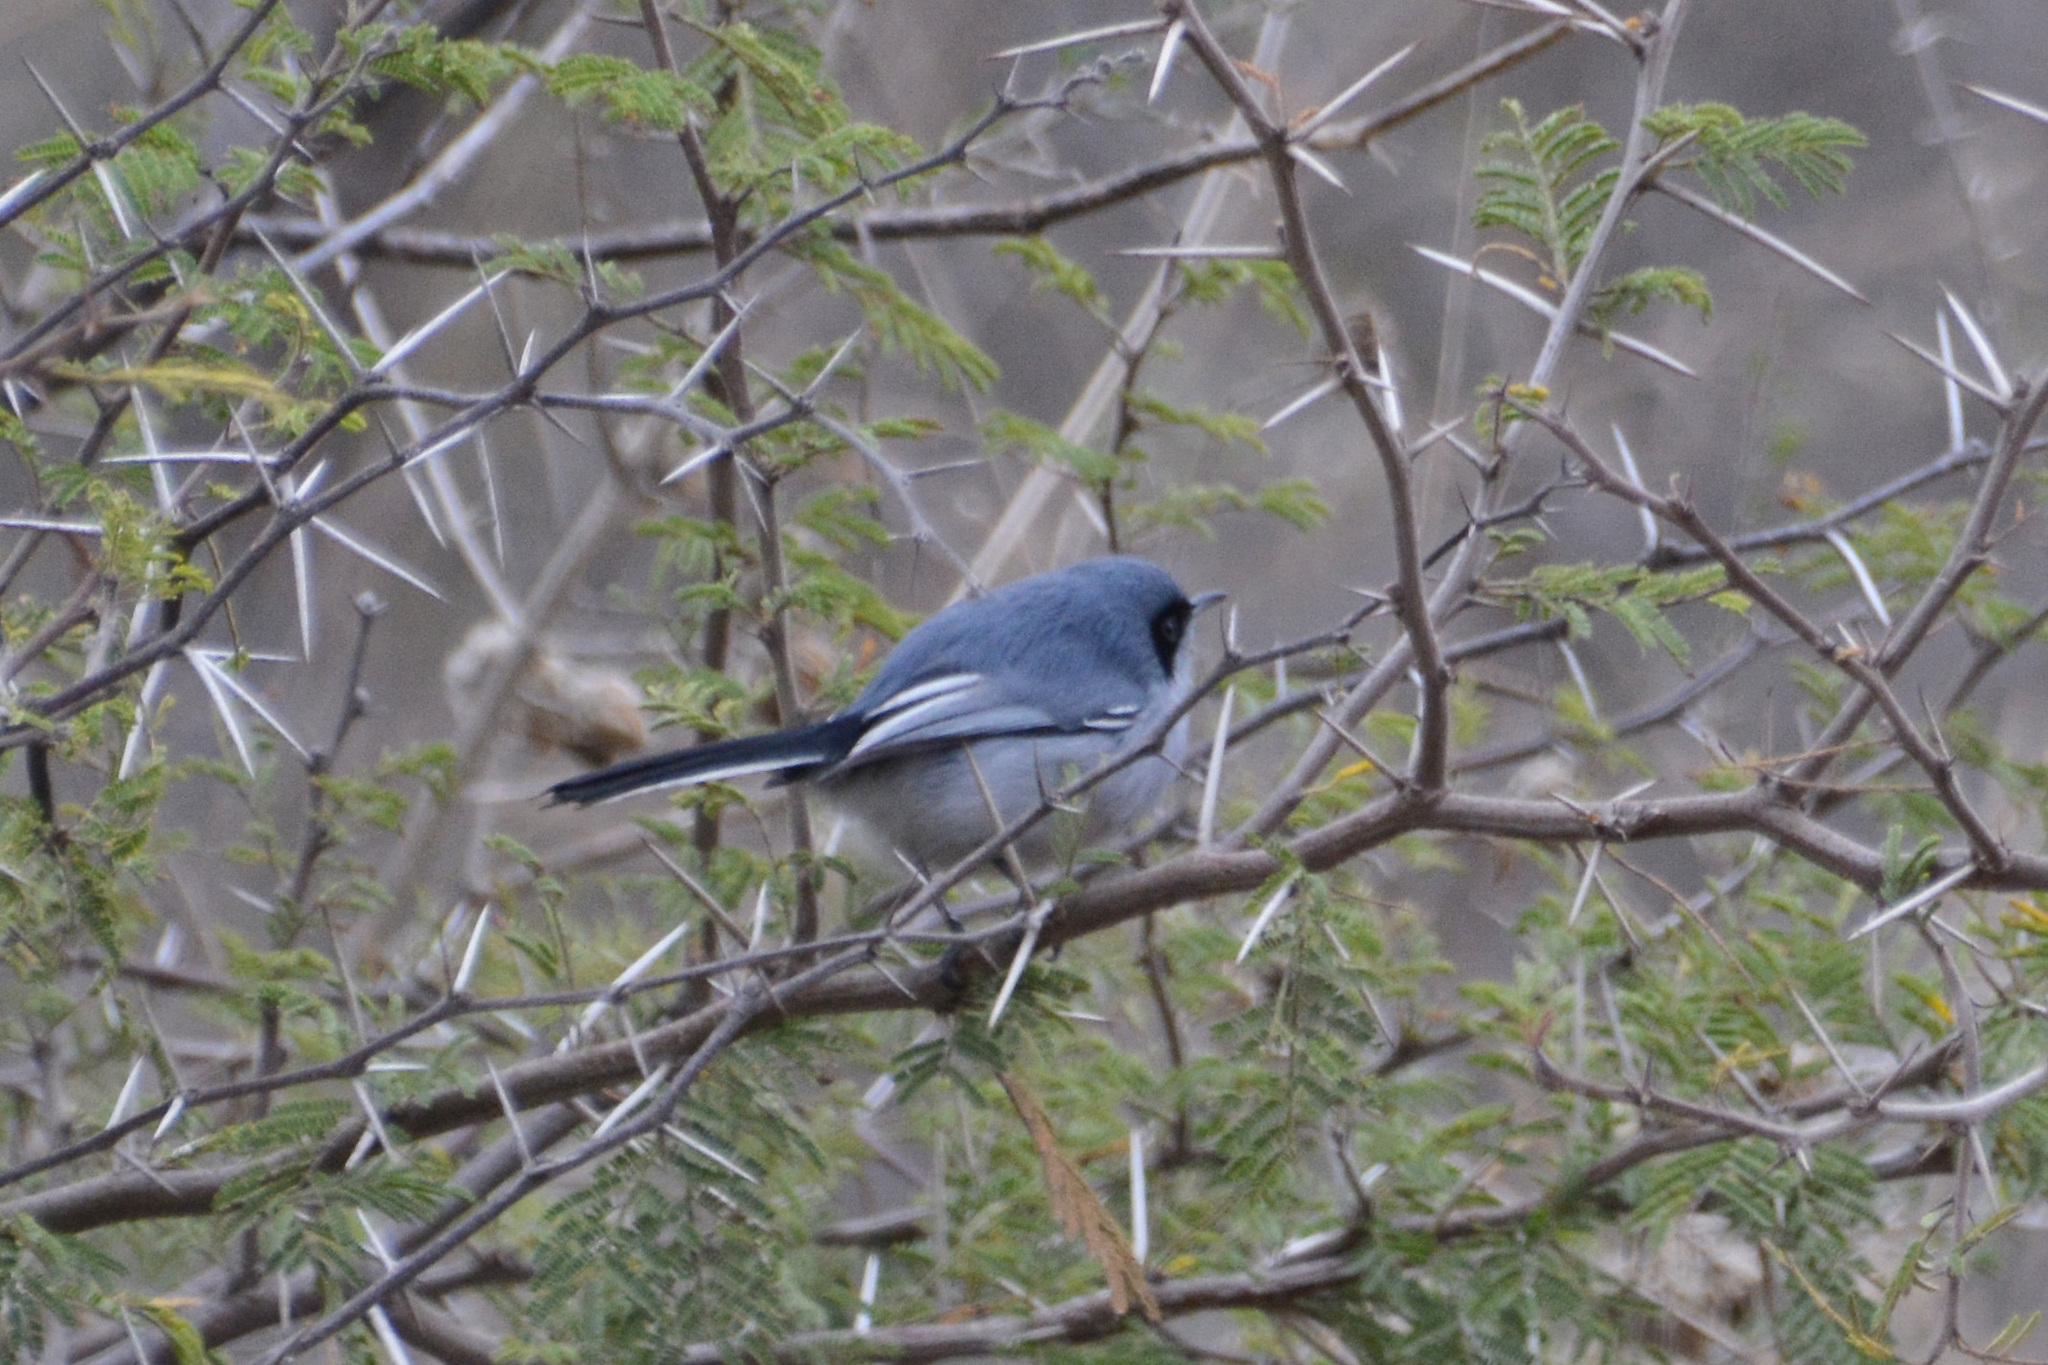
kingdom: Animalia
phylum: Chordata
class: Aves
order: Passeriformes
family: Polioptilidae
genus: Polioptila
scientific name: Polioptila dumicola
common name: Masked gnatcatcher
